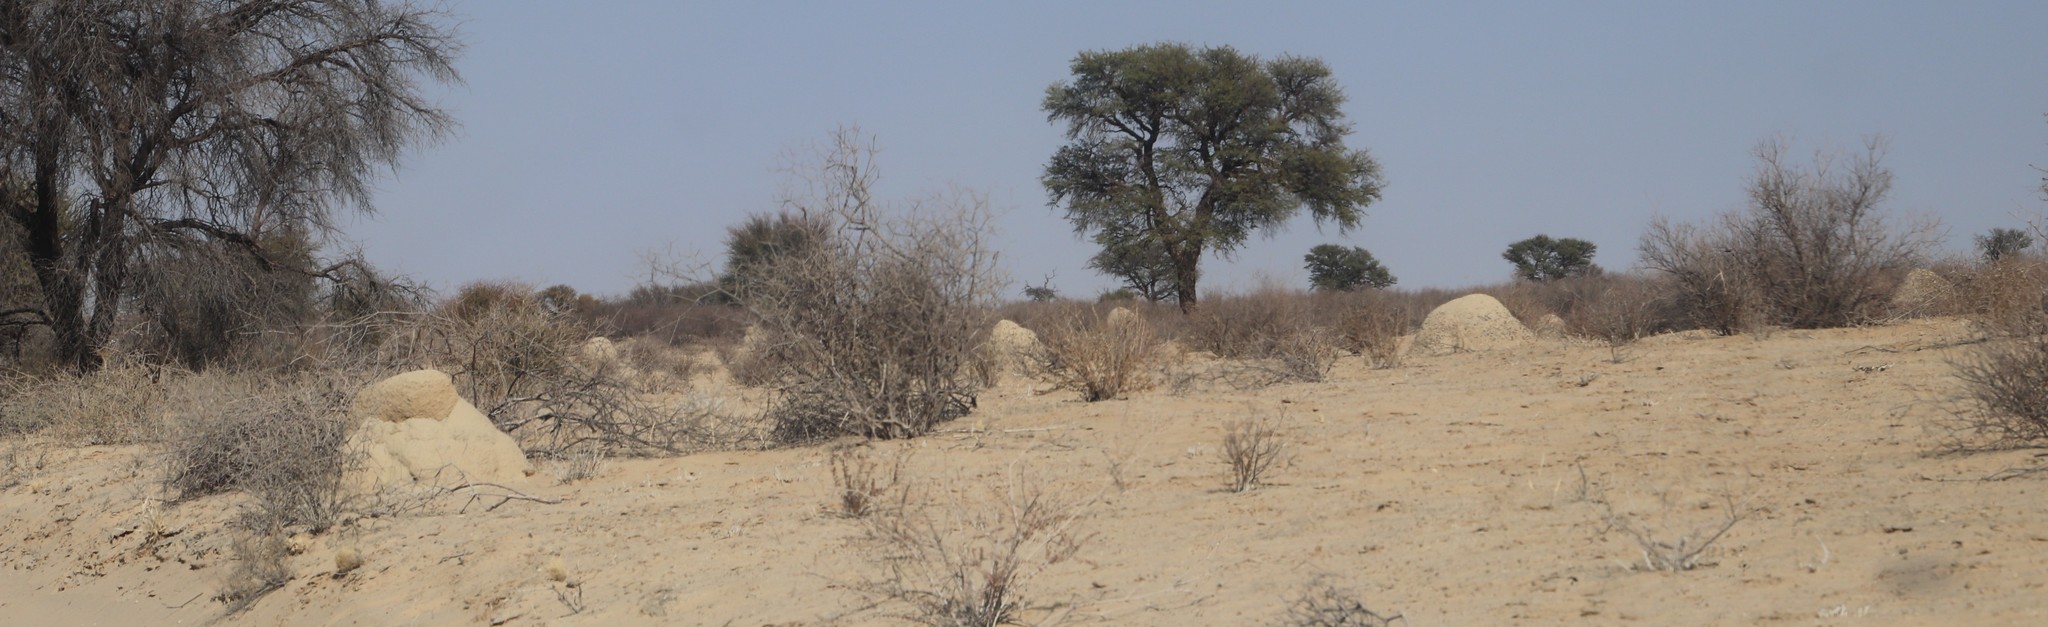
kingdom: Animalia
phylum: Arthropoda
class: Insecta
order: Blattodea
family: Termitidae
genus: Trinervitermes
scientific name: Trinervitermes trinervoides
